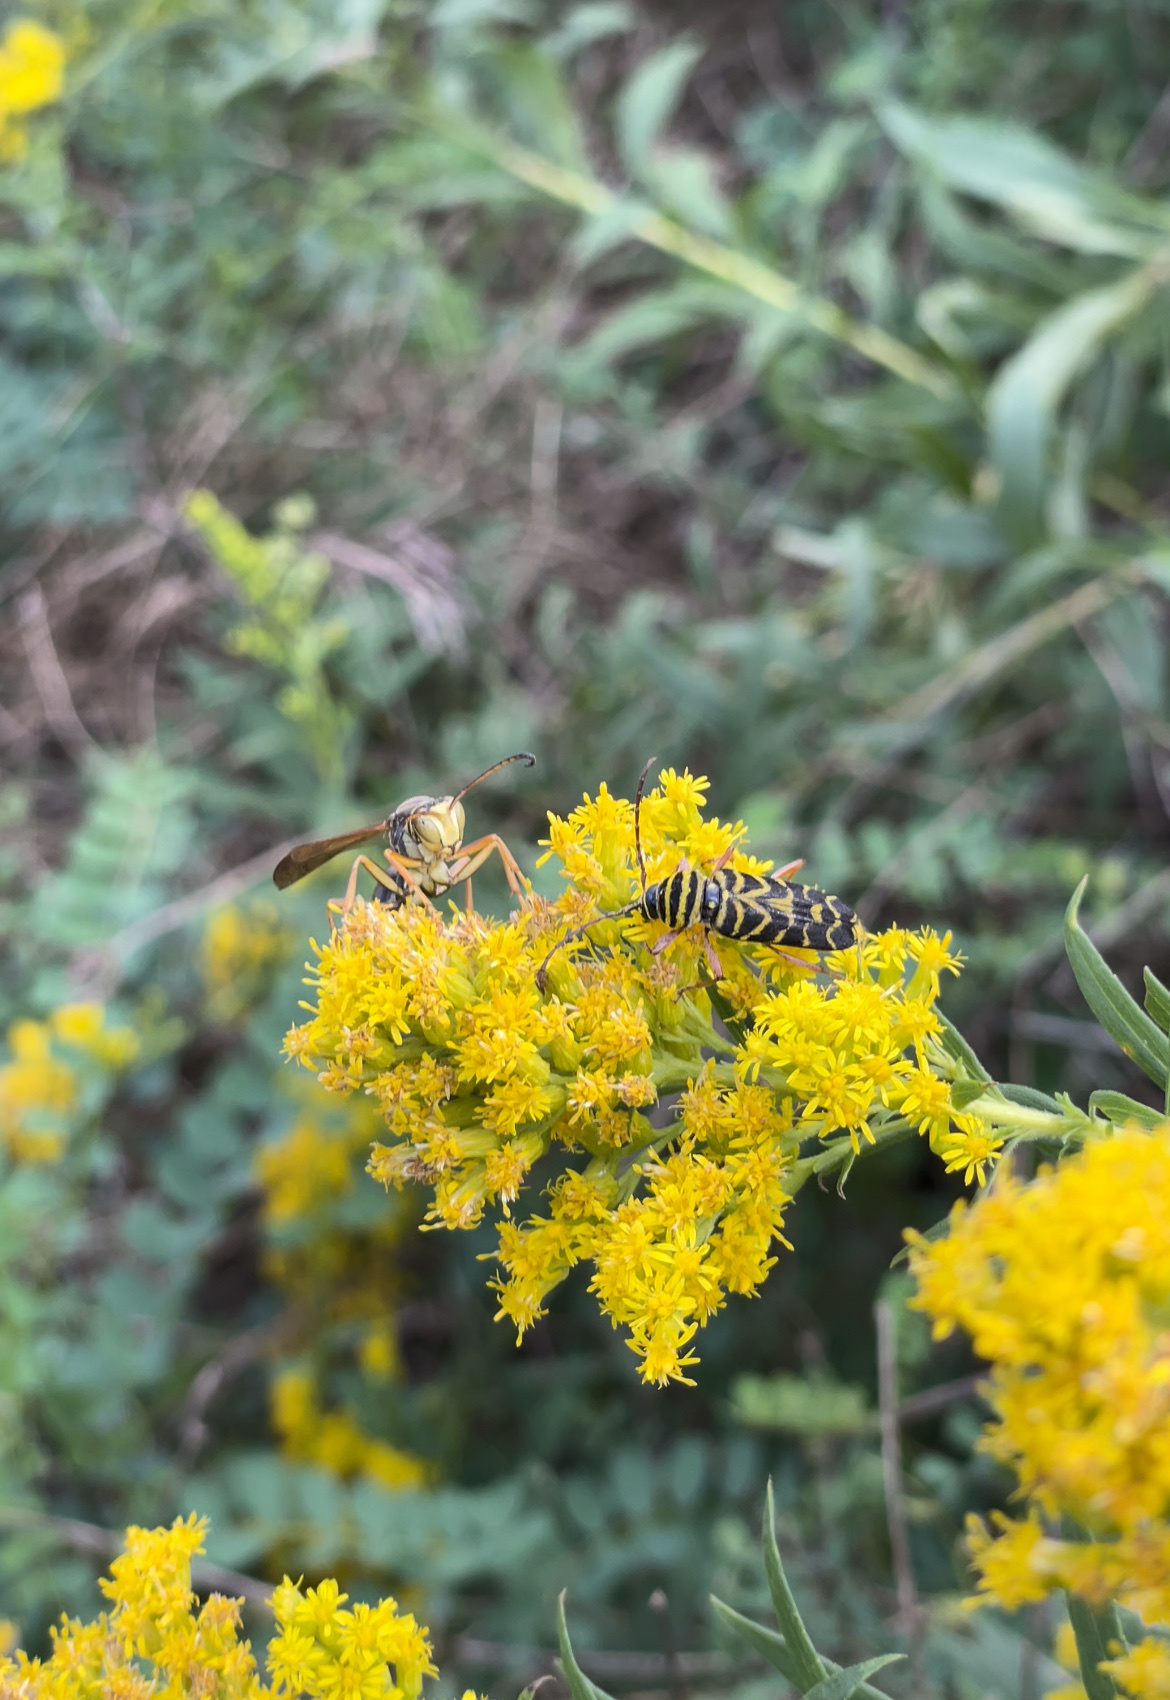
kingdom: Animalia
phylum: Arthropoda
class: Insecta
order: Coleoptera
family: Cerambycidae
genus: Megacyllene
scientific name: Megacyllene robiniae
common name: Locust borer
